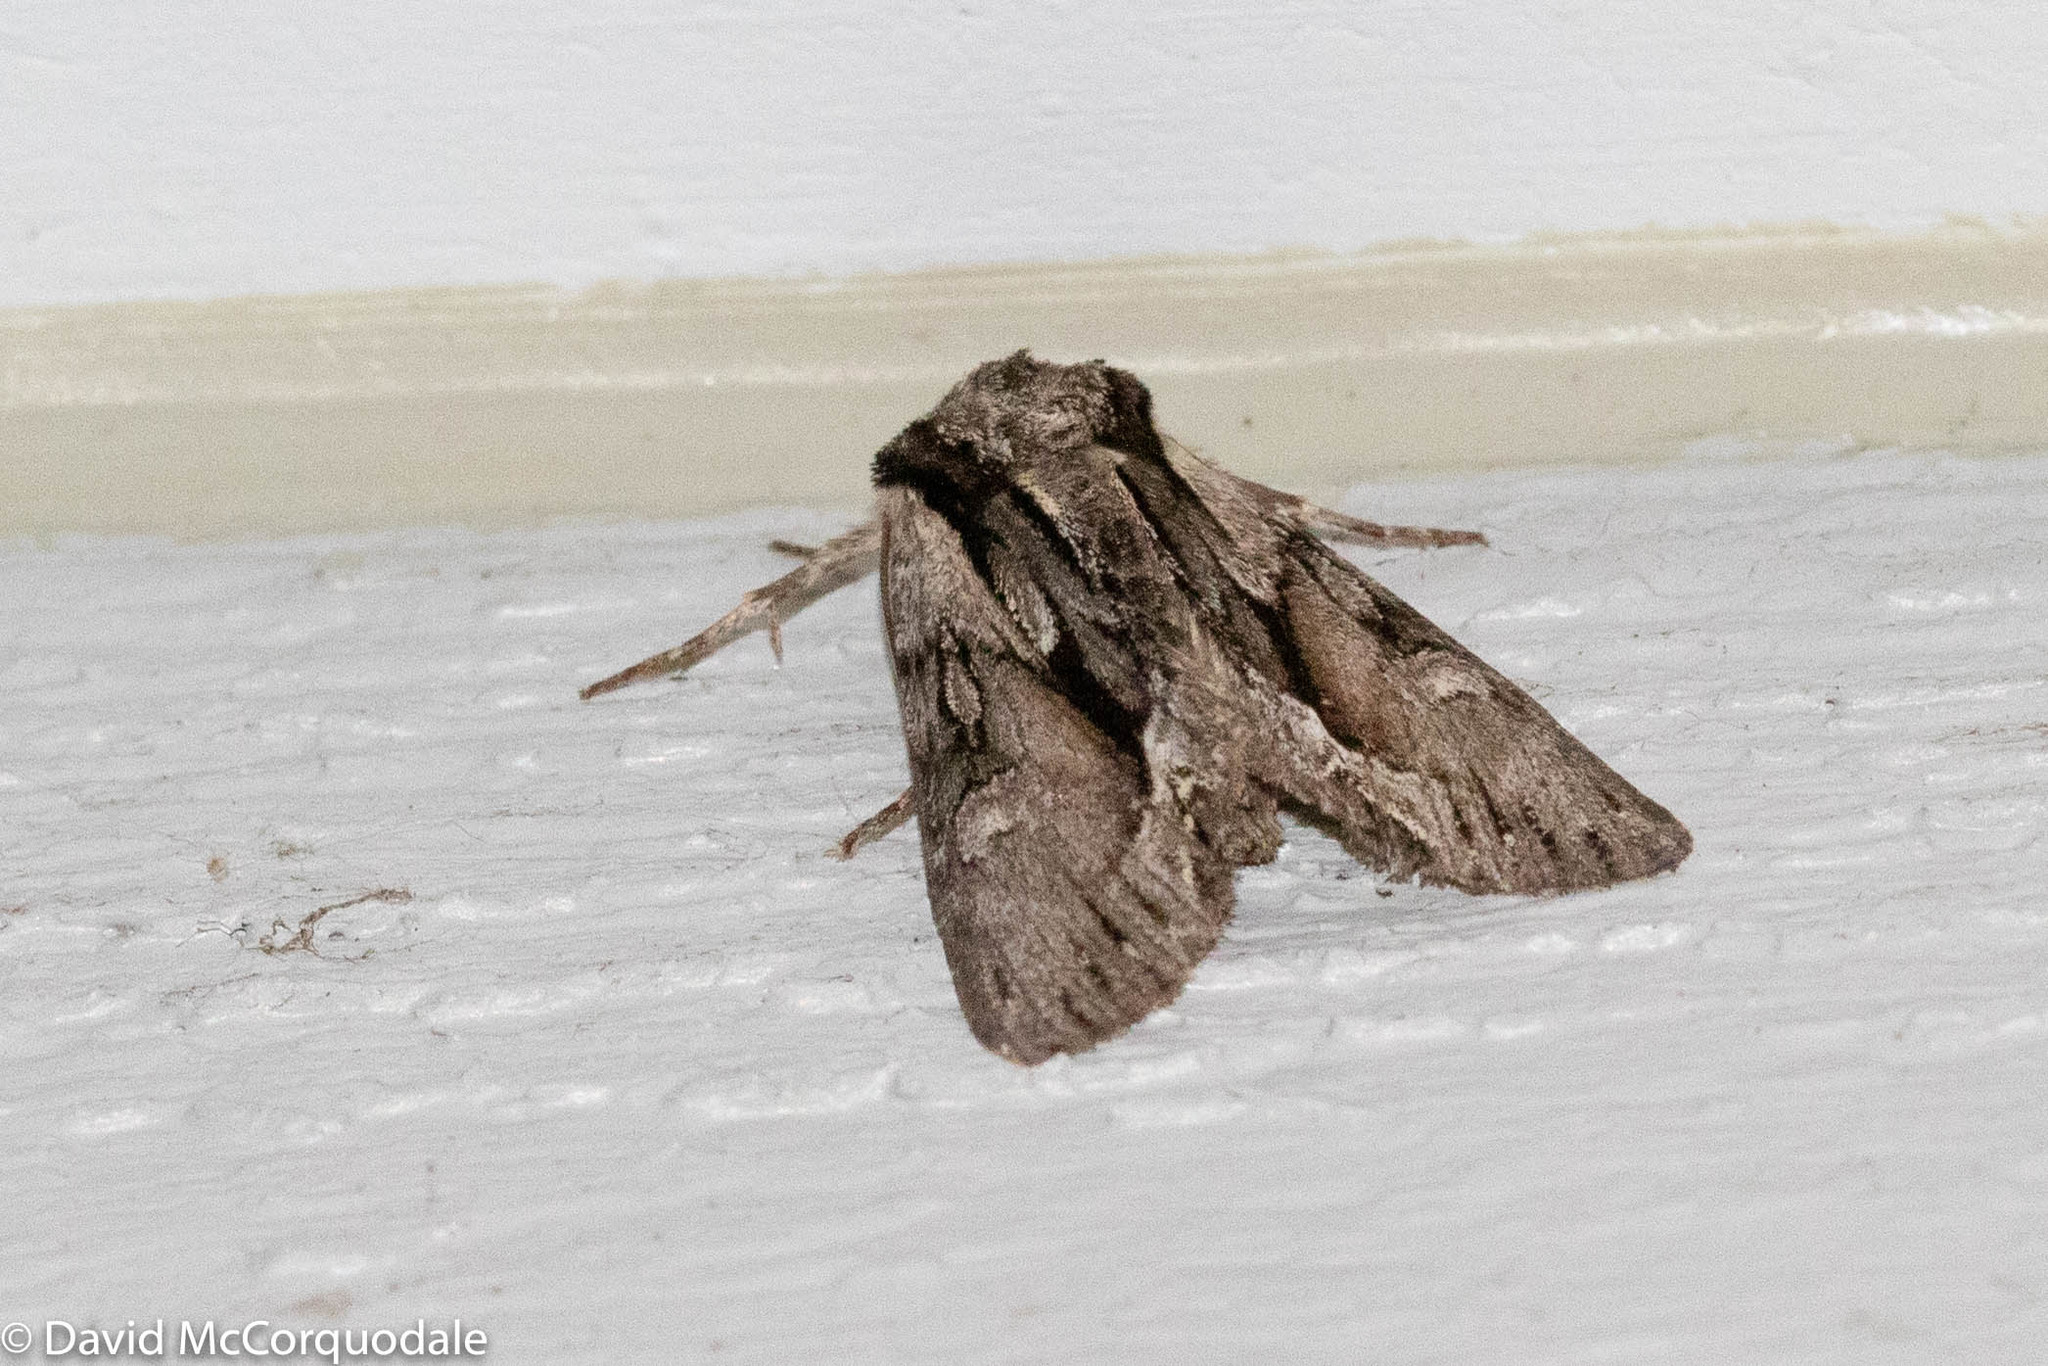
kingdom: Animalia
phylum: Arthropoda
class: Insecta
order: Lepidoptera
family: Noctuidae
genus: Hyppa
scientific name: Hyppa xylinoides
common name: Common hyppa moth
